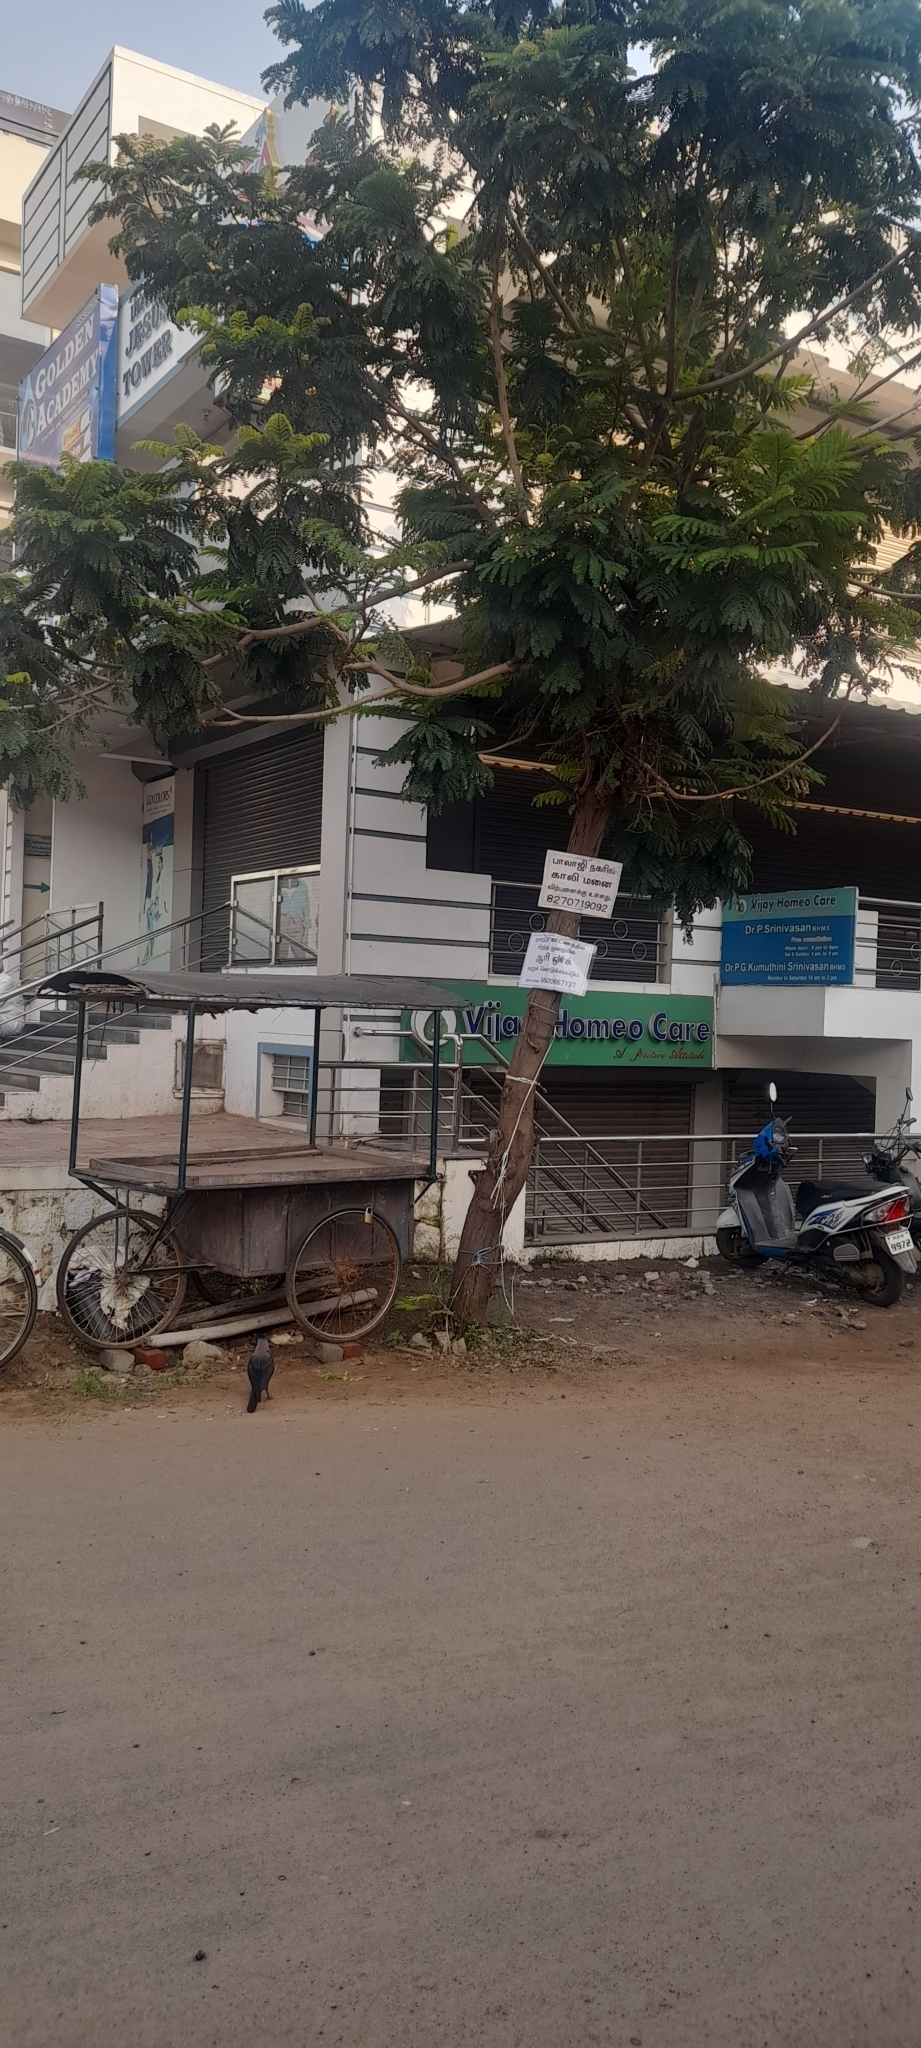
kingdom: Animalia
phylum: Chordata
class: Aves
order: Passeriformes
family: Corvidae
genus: Corvus
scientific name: Corvus splendens
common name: House crow
